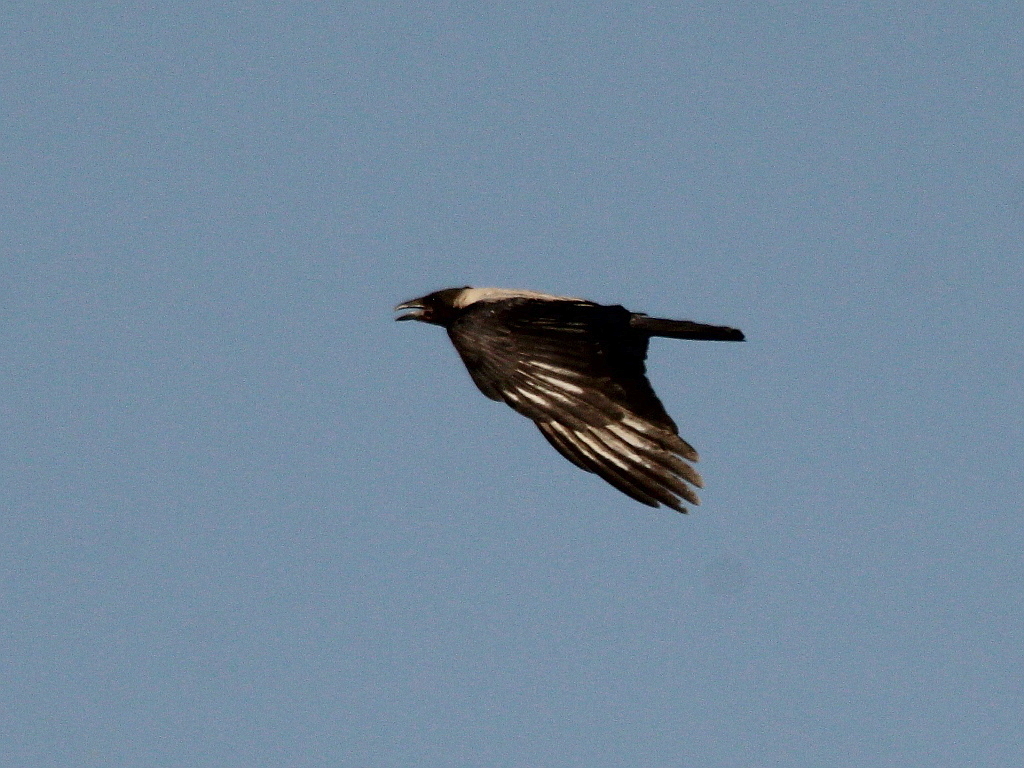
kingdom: Animalia
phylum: Chordata
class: Aves
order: Passeriformes
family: Corvidae
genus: Corvus
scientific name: Corvus cornix
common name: Hooded crow
